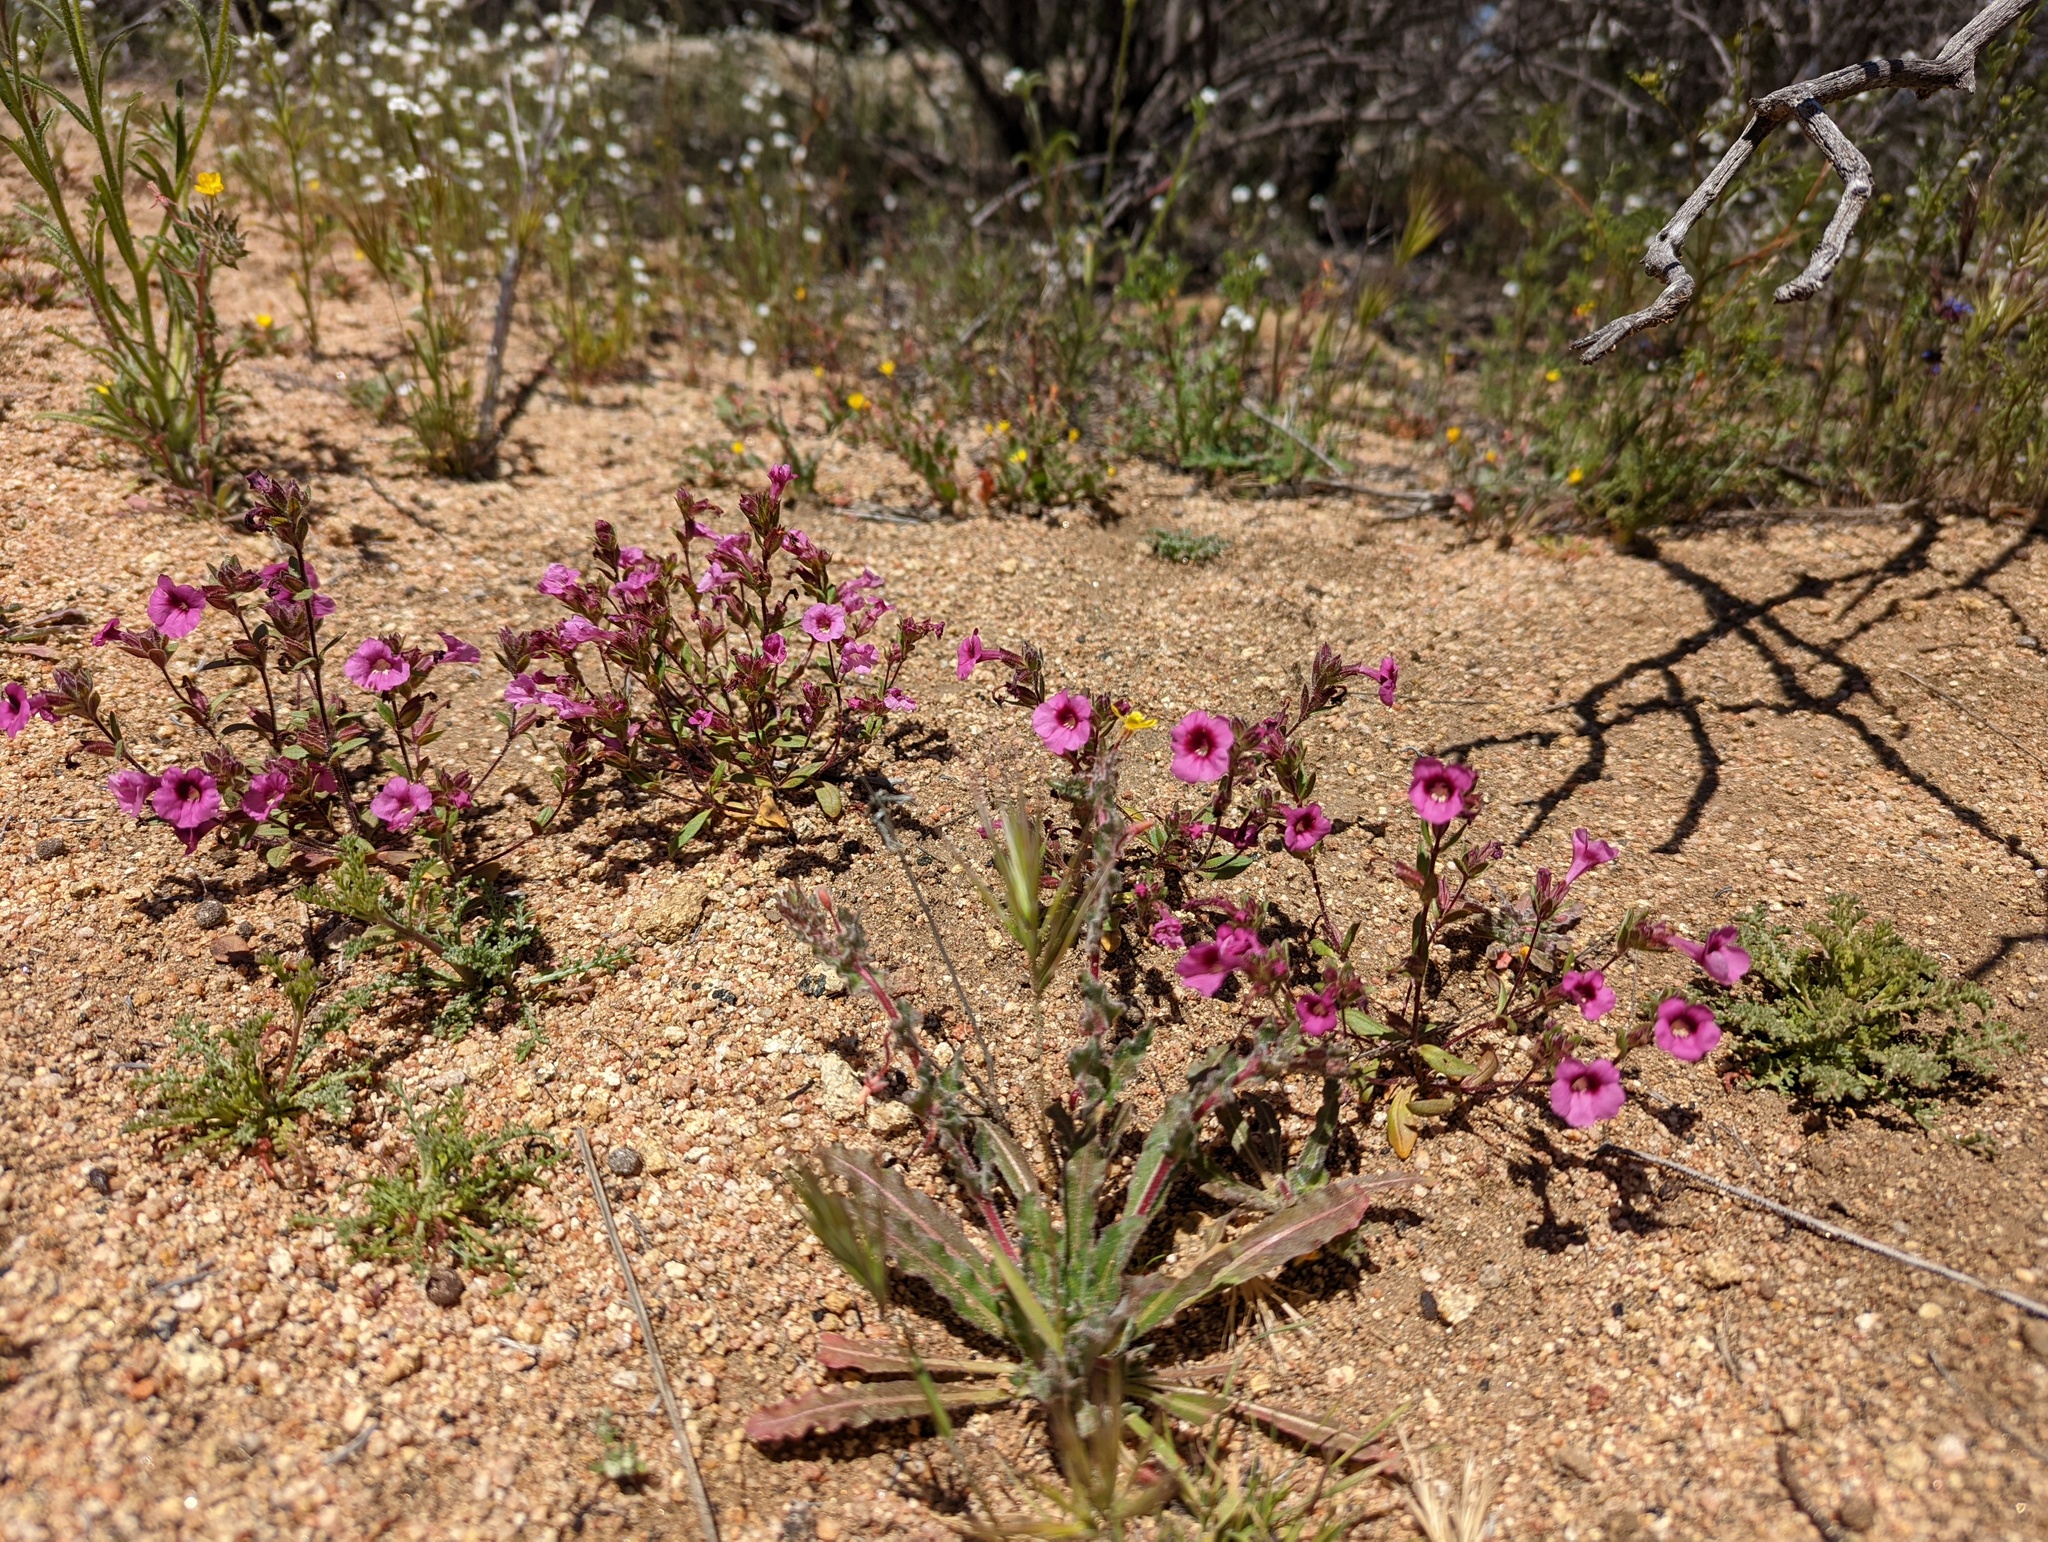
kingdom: Plantae
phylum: Tracheophyta
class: Magnoliopsida
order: Lamiales
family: Phrymaceae
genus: Diplacus
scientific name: Diplacus fremontii
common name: Fremont's monkey-flower
